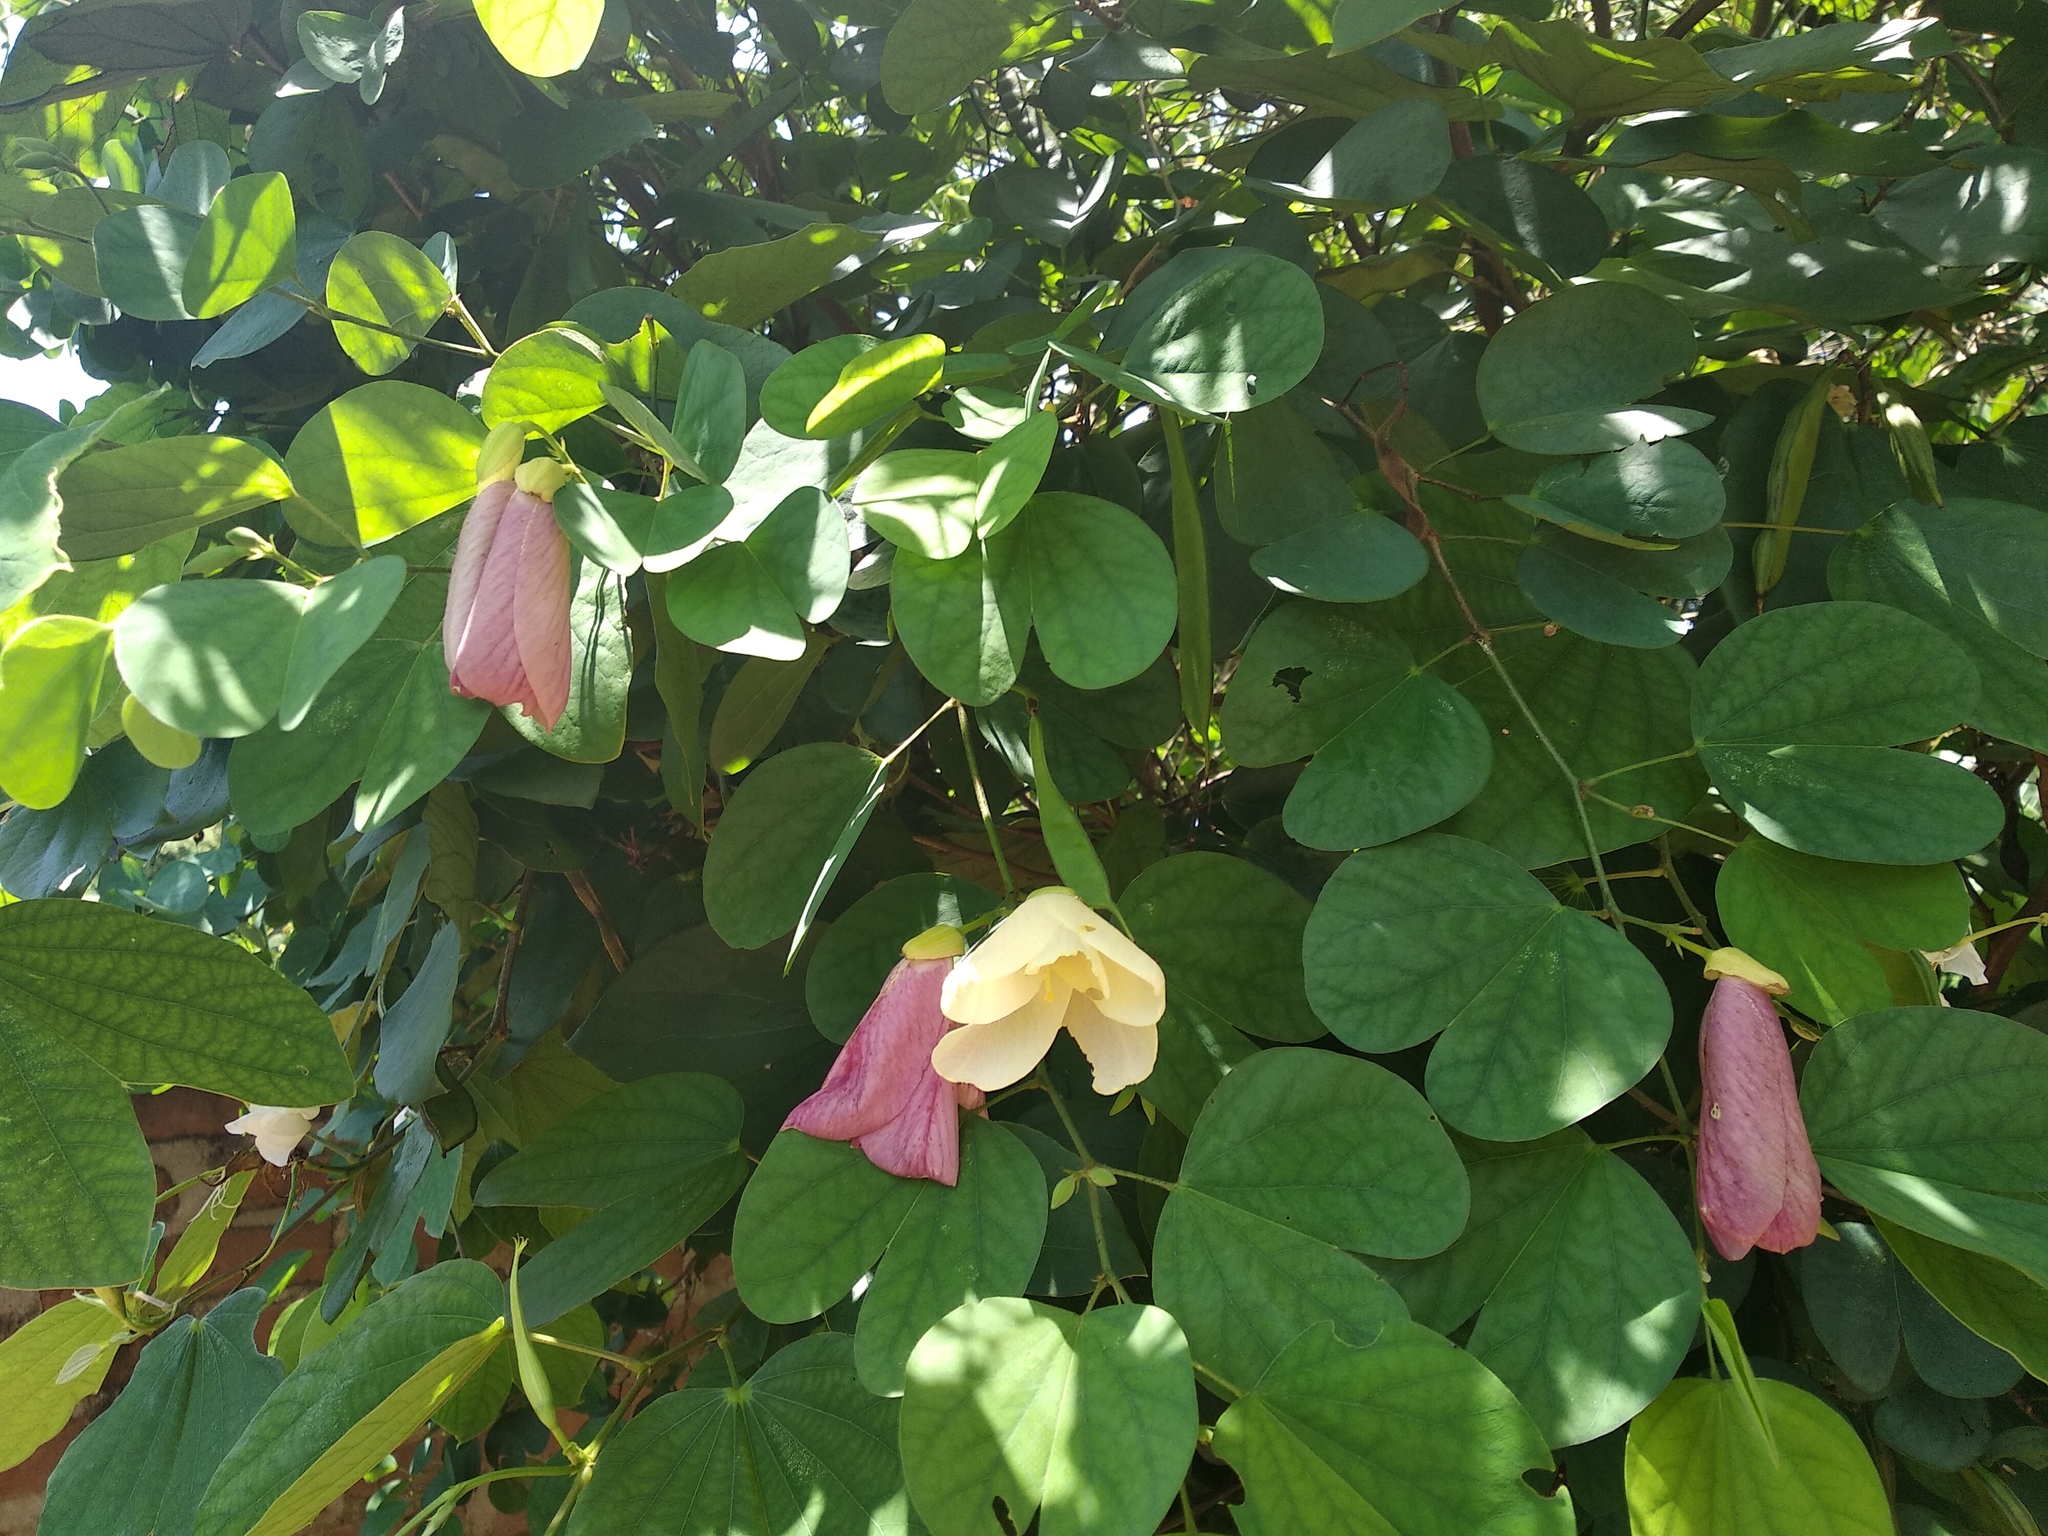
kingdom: Plantae
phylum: Tracheophyta
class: Magnoliopsida
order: Fabales
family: Fabaceae
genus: Bauhinia
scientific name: Bauhinia tomentosa
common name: Bell bauhinia
